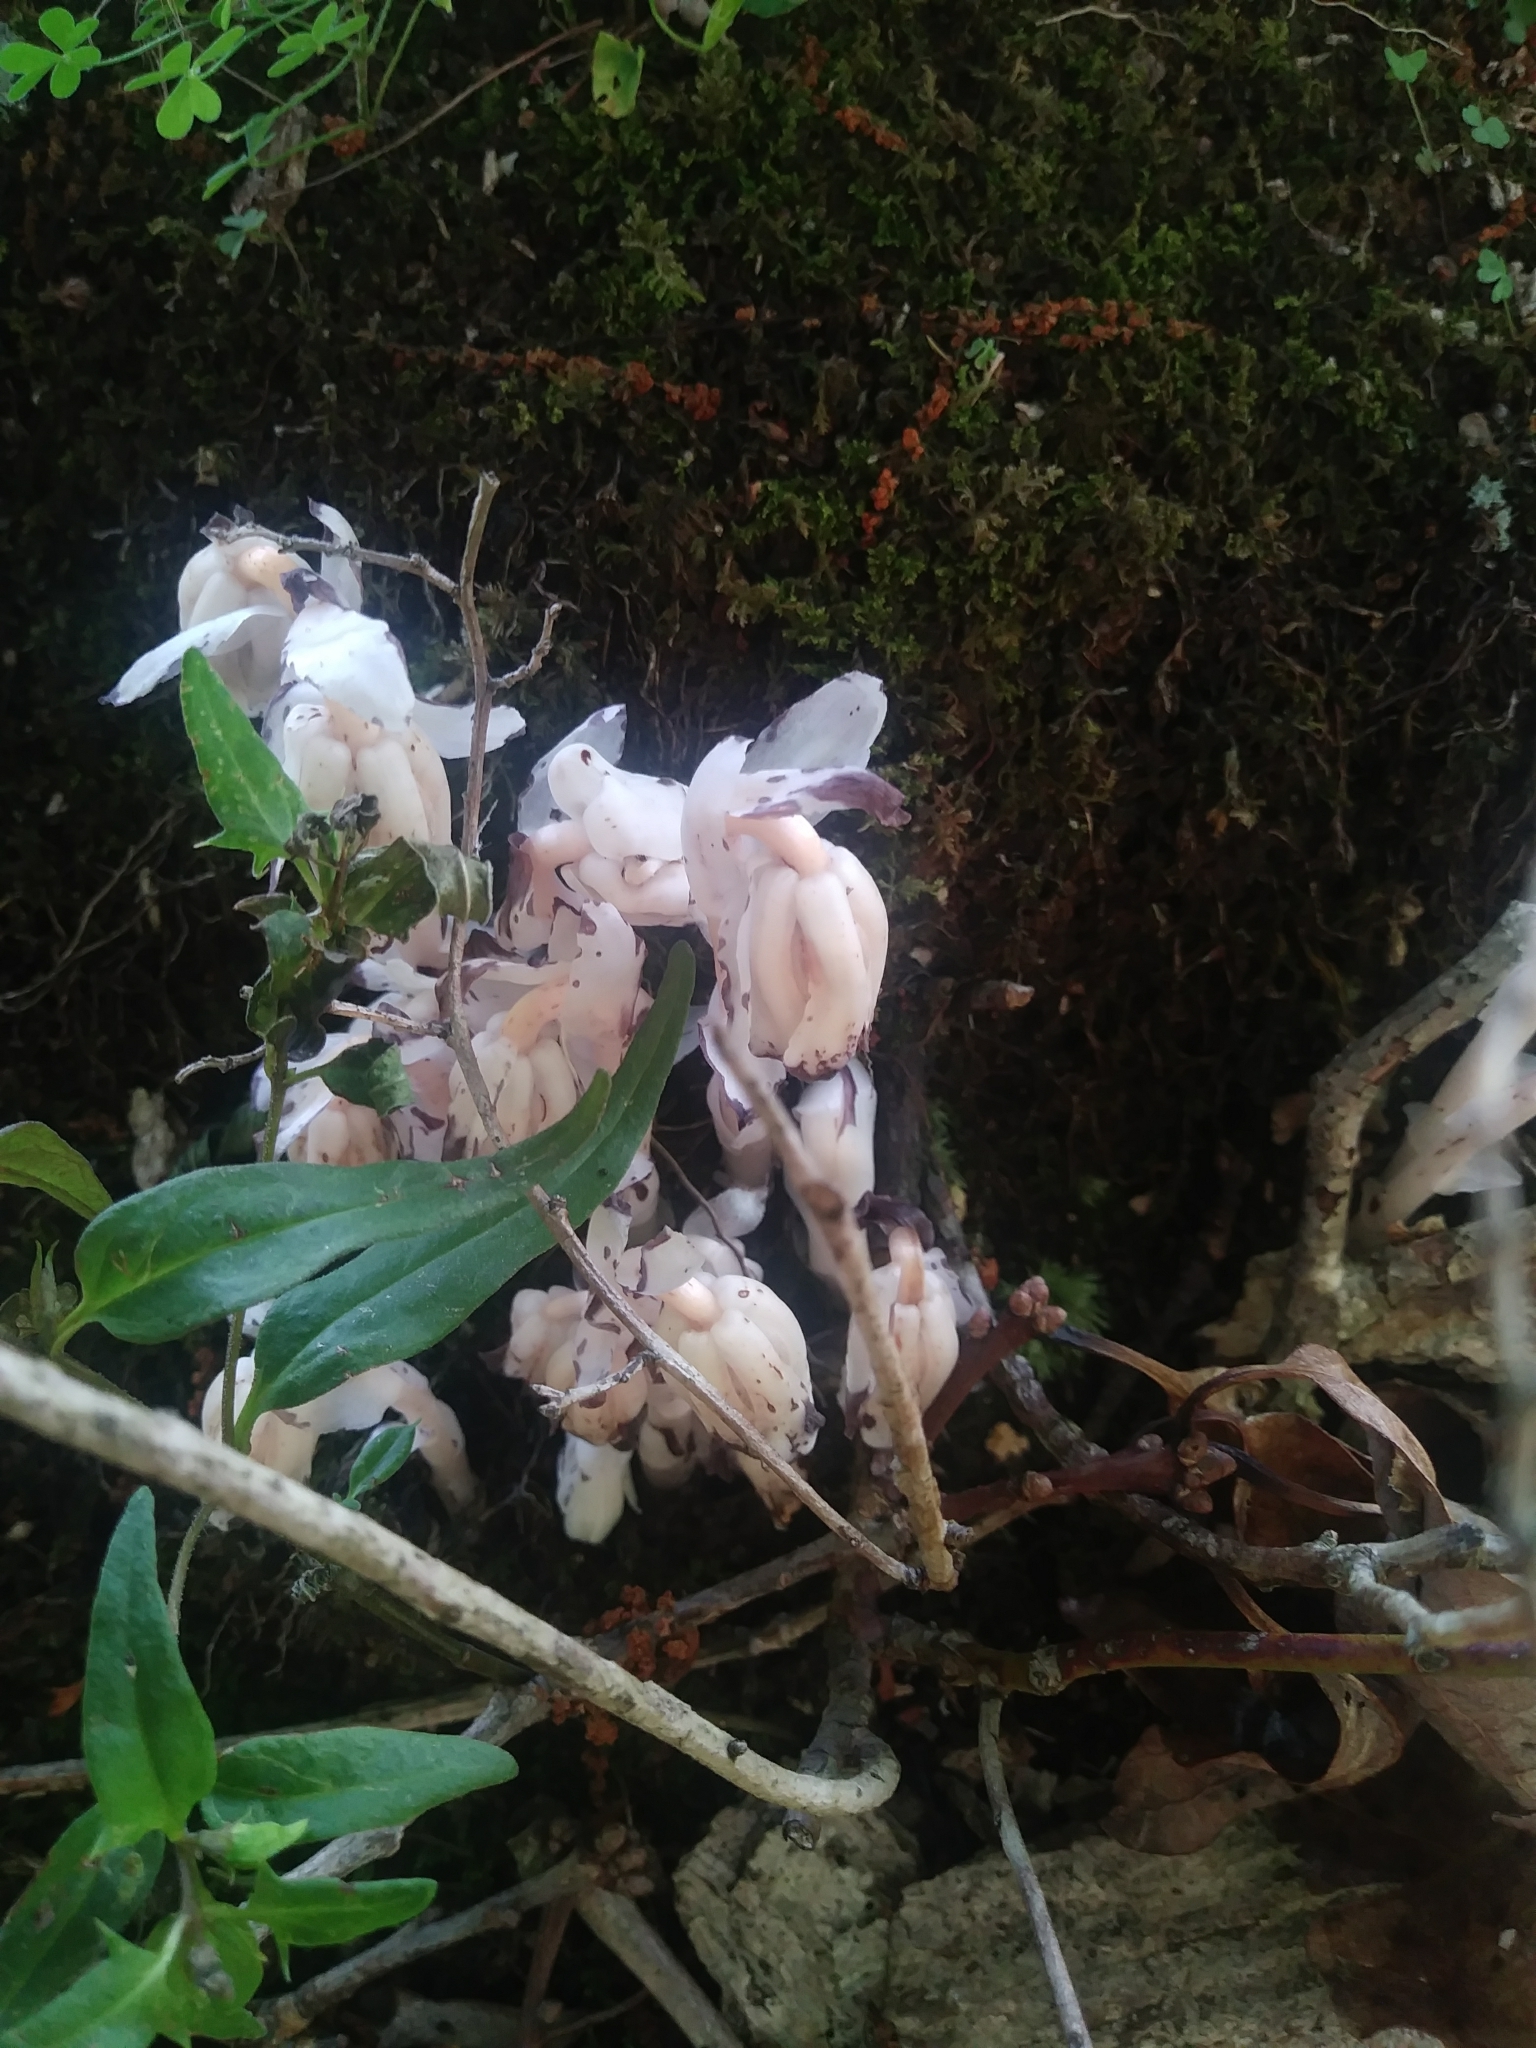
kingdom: Plantae
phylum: Tracheophyta
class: Magnoliopsida
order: Ericales
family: Ericaceae
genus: Monotropa
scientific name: Monotropa uniflora
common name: Convulsion root
